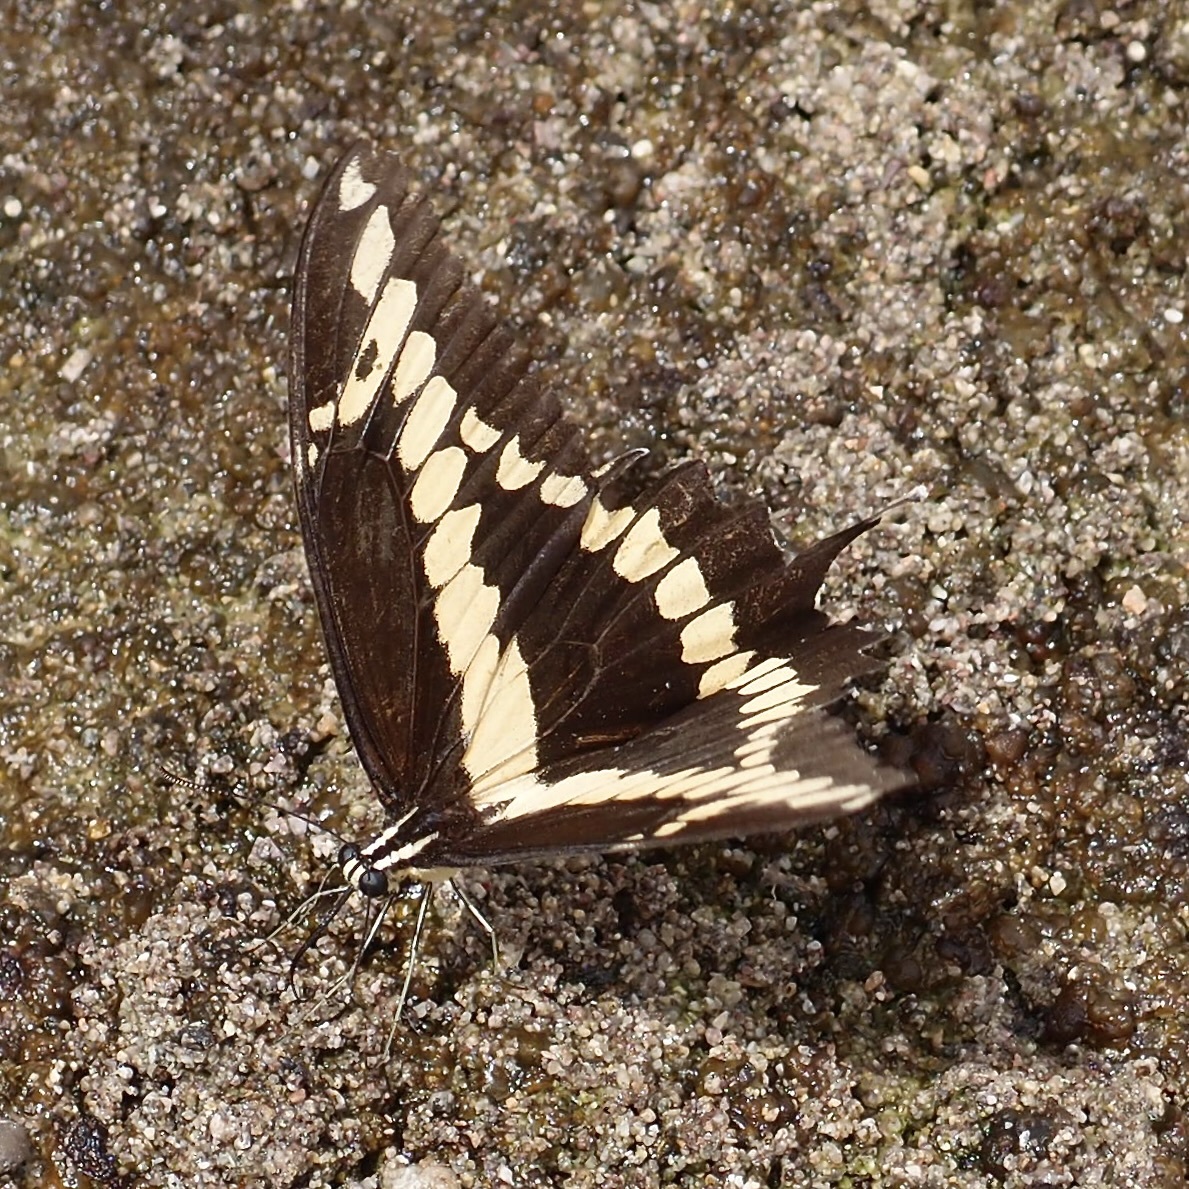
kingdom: Animalia
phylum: Arthropoda
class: Insecta
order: Lepidoptera
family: Papilionidae
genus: Papilio
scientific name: Papilio rumiko
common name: Western giant swallowtail
